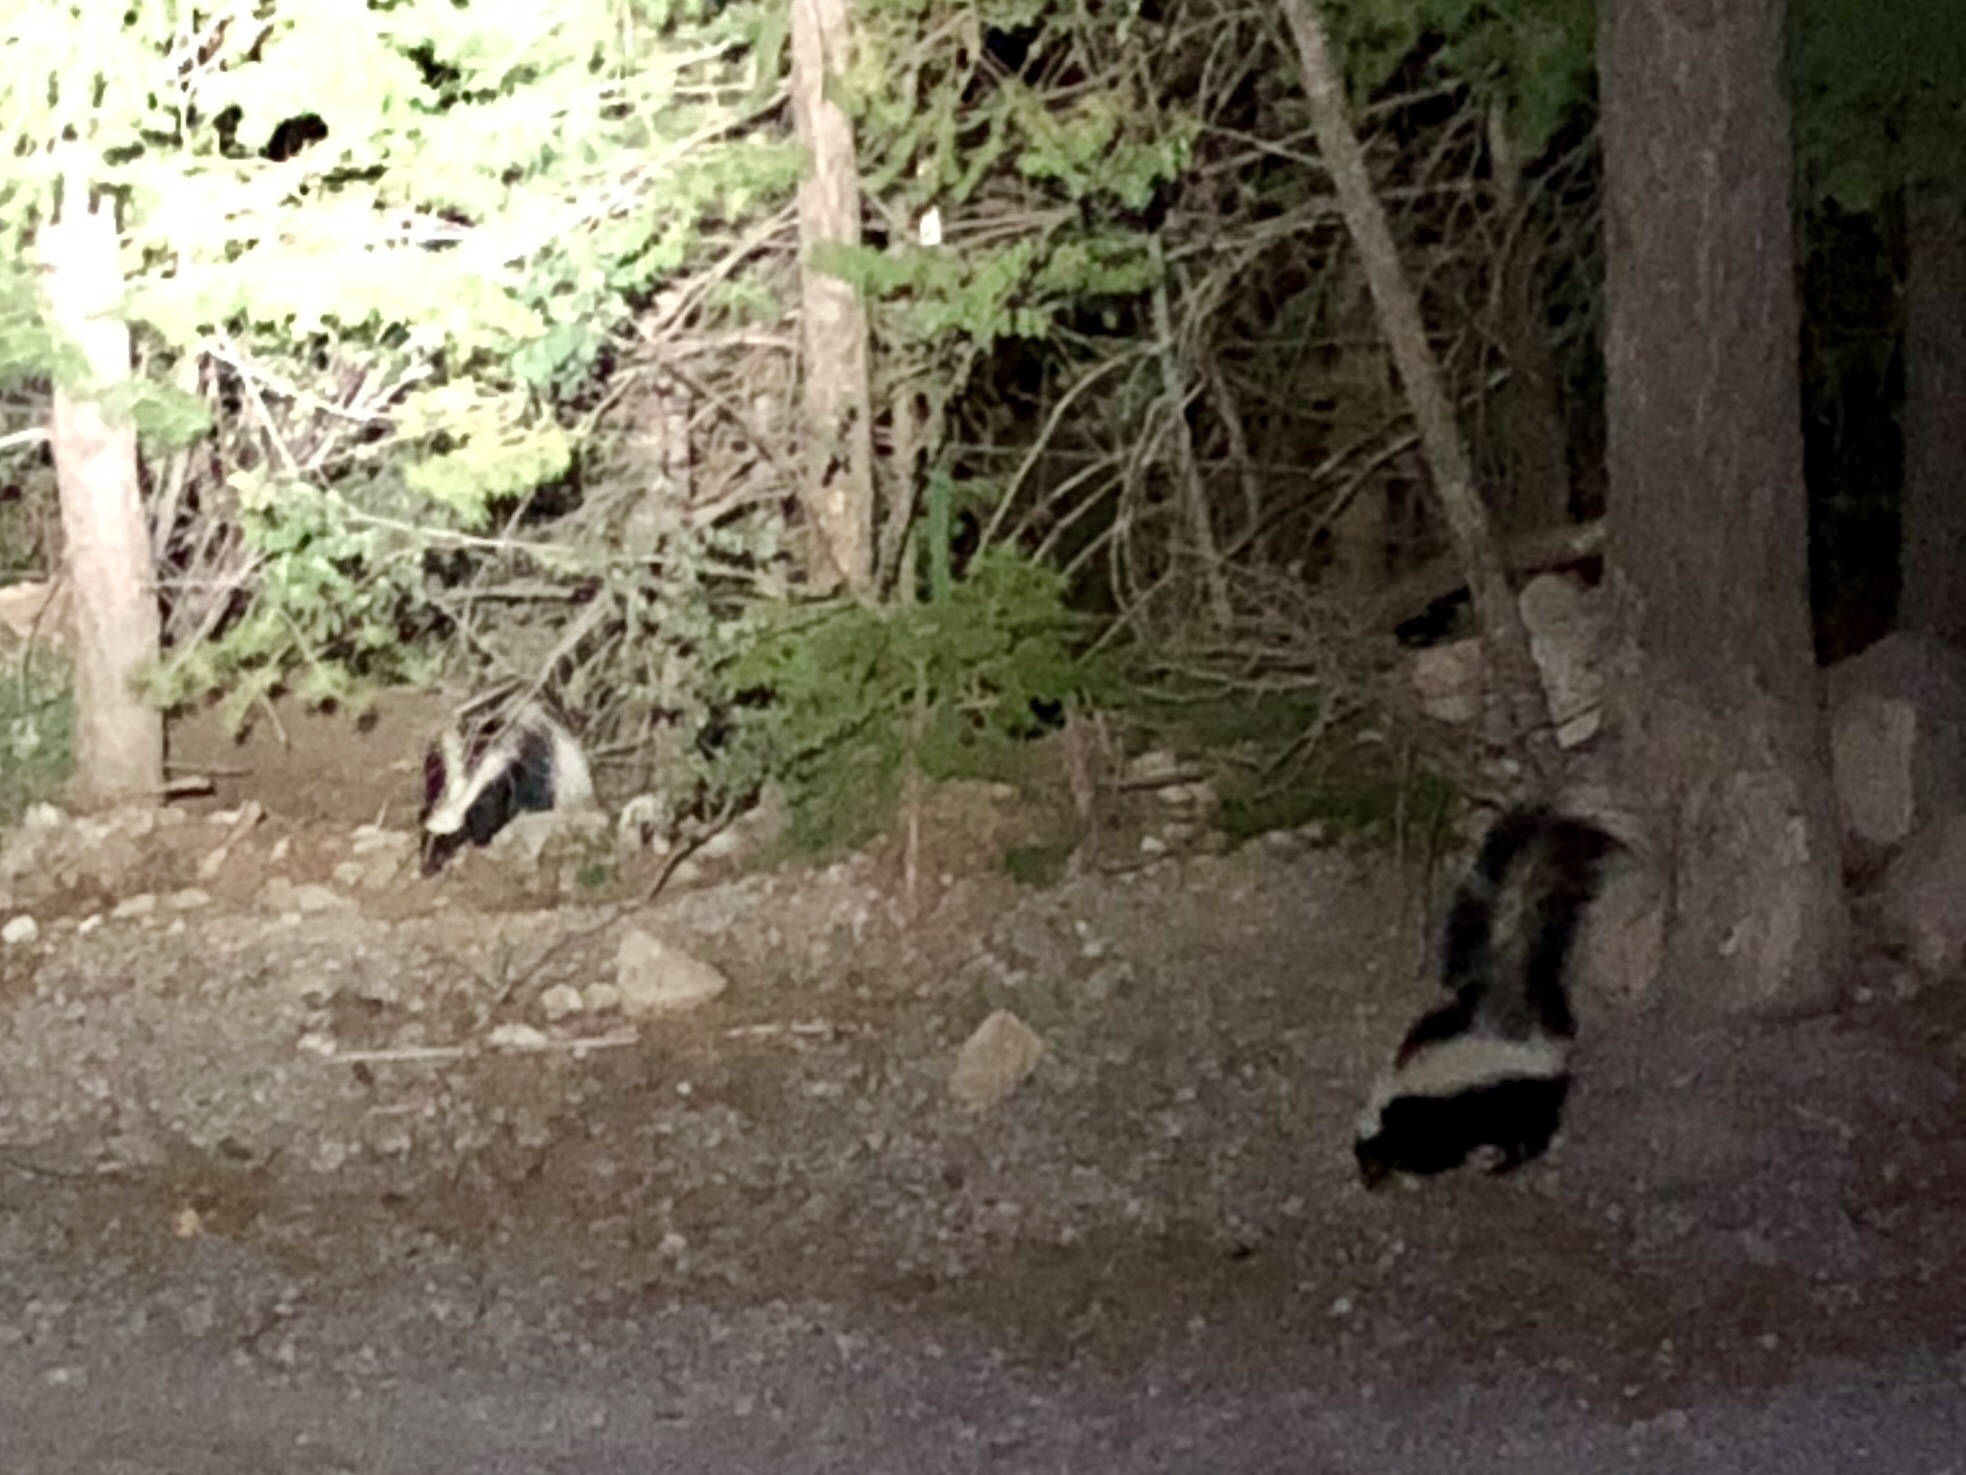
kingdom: Animalia
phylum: Chordata
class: Mammalia
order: Carnivora
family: Mephitidae
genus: Mephitis
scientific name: Mephitis mephitis
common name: Striped skunk
